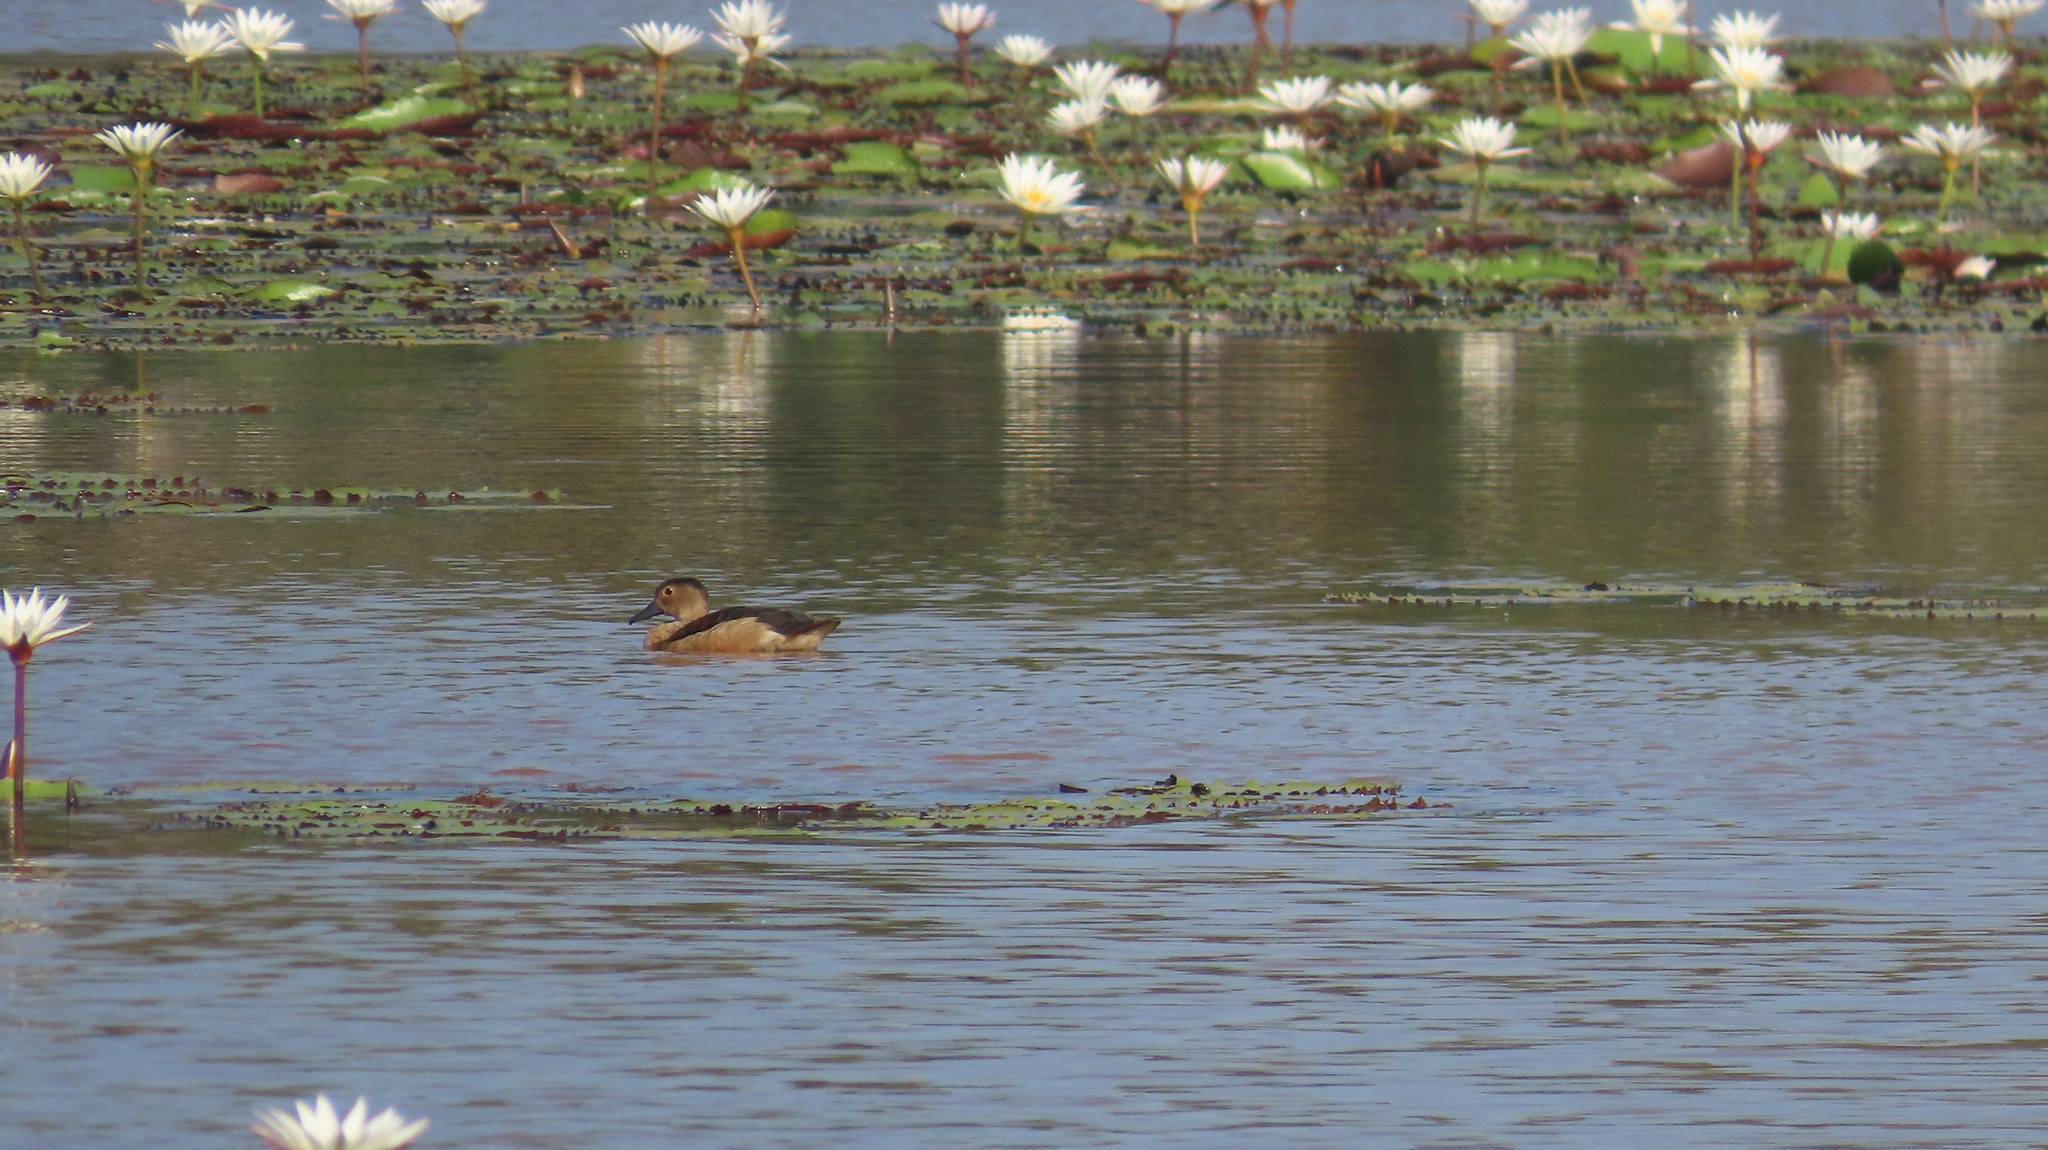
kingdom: Animalia
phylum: Chordata
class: Aves
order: Anseriformes
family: Anatidae
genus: Dendrocygna
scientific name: Dendrocygna javanica
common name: Lesser whistling-duck
